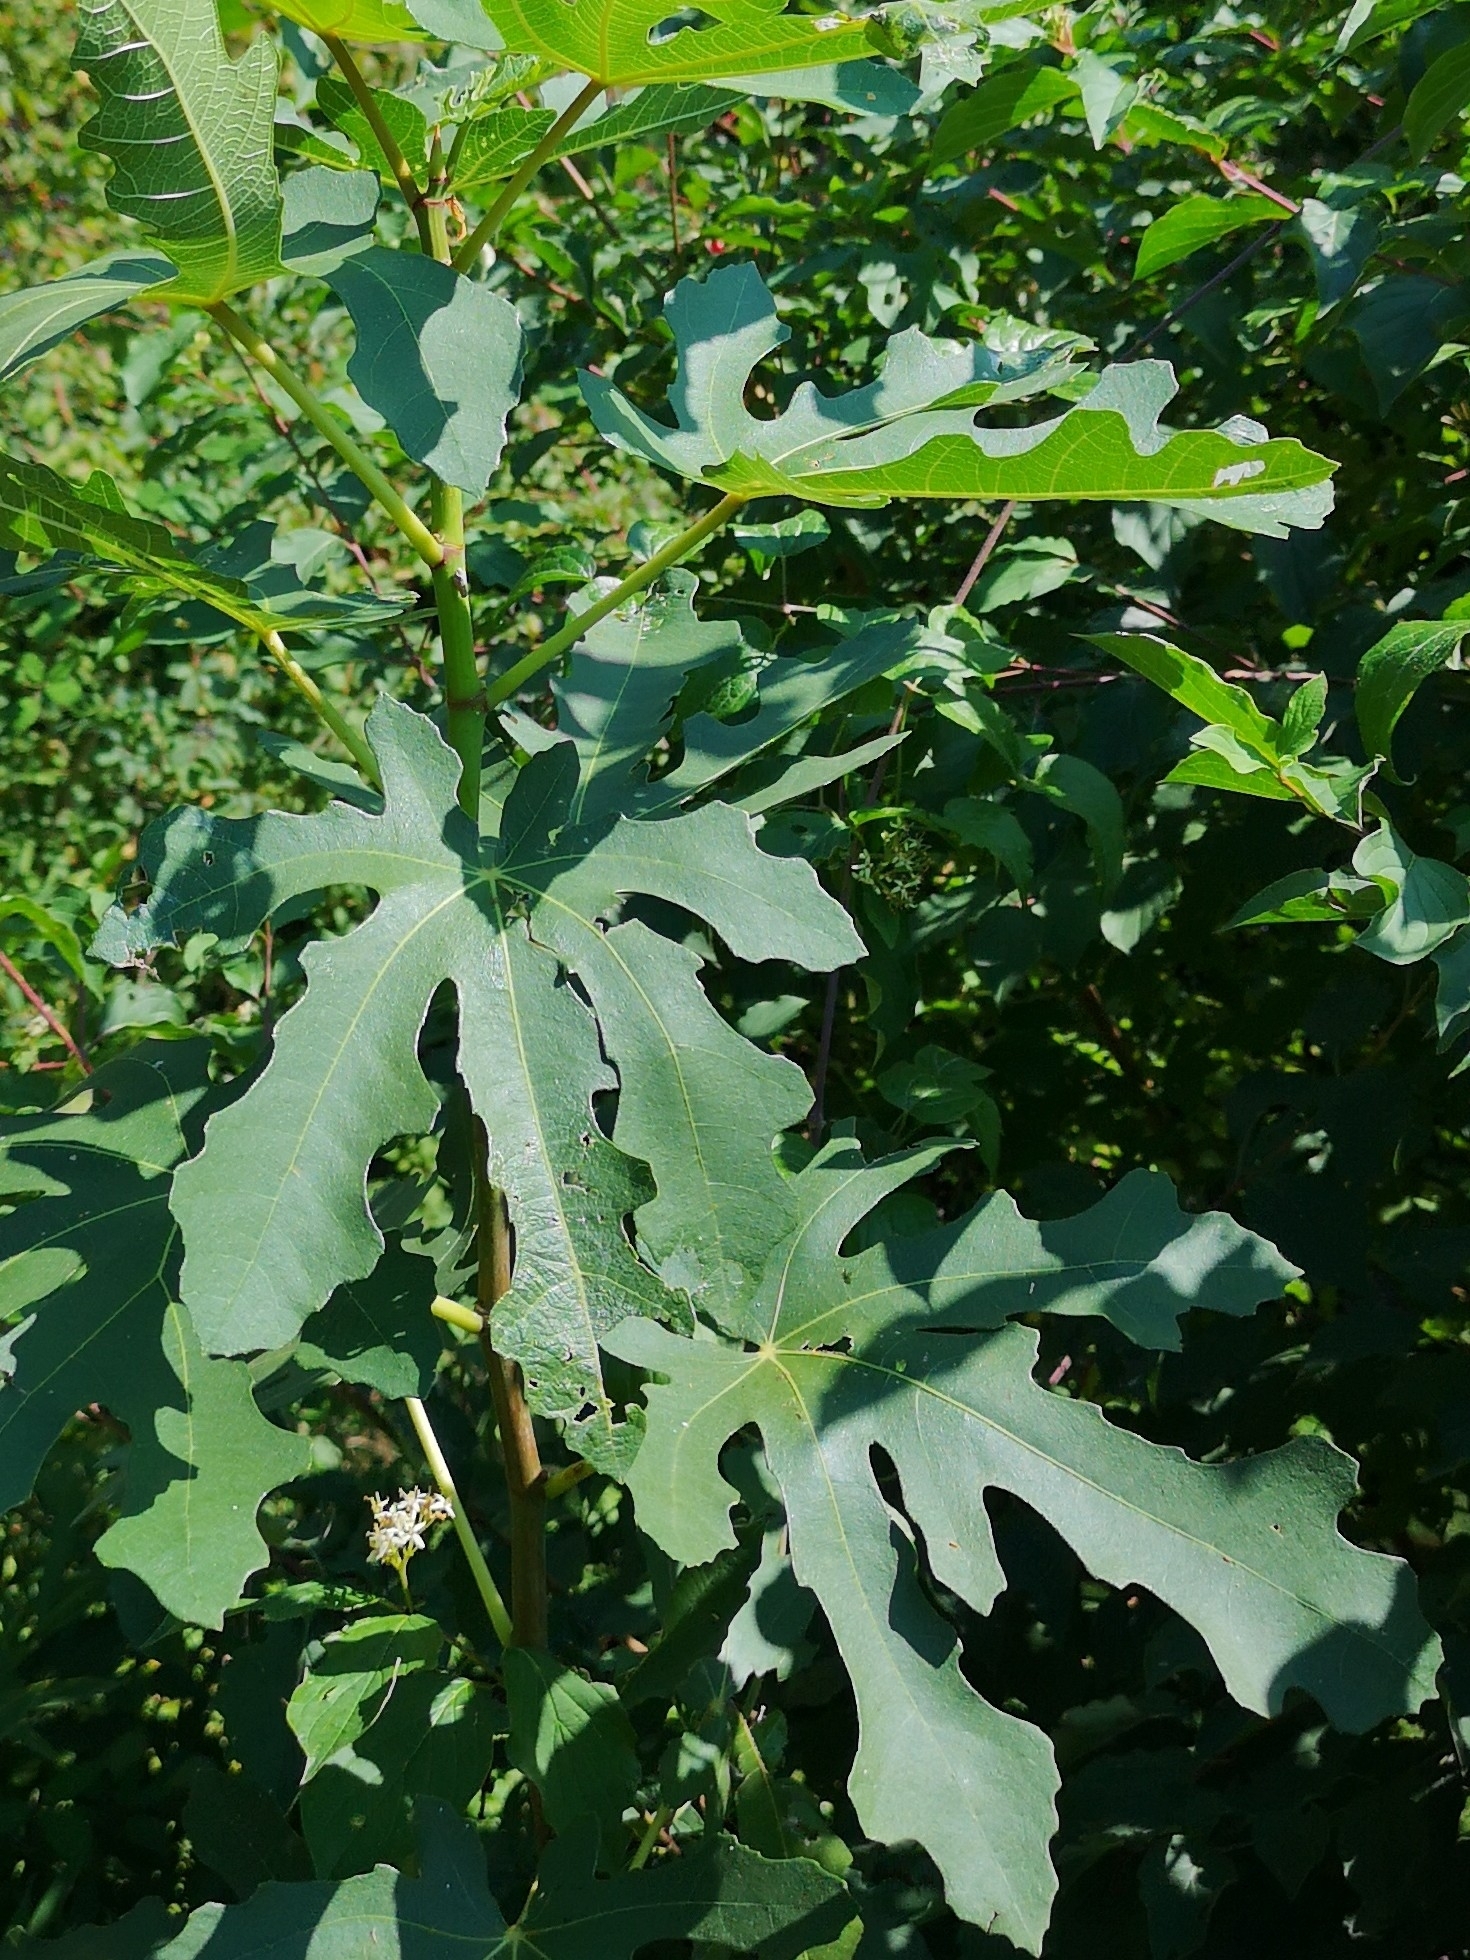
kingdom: Plantae
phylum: Tracheophyta
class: Magnoliopsida
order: Rosales
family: Moraceae
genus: Ficus
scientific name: Ficus carica
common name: Fig
